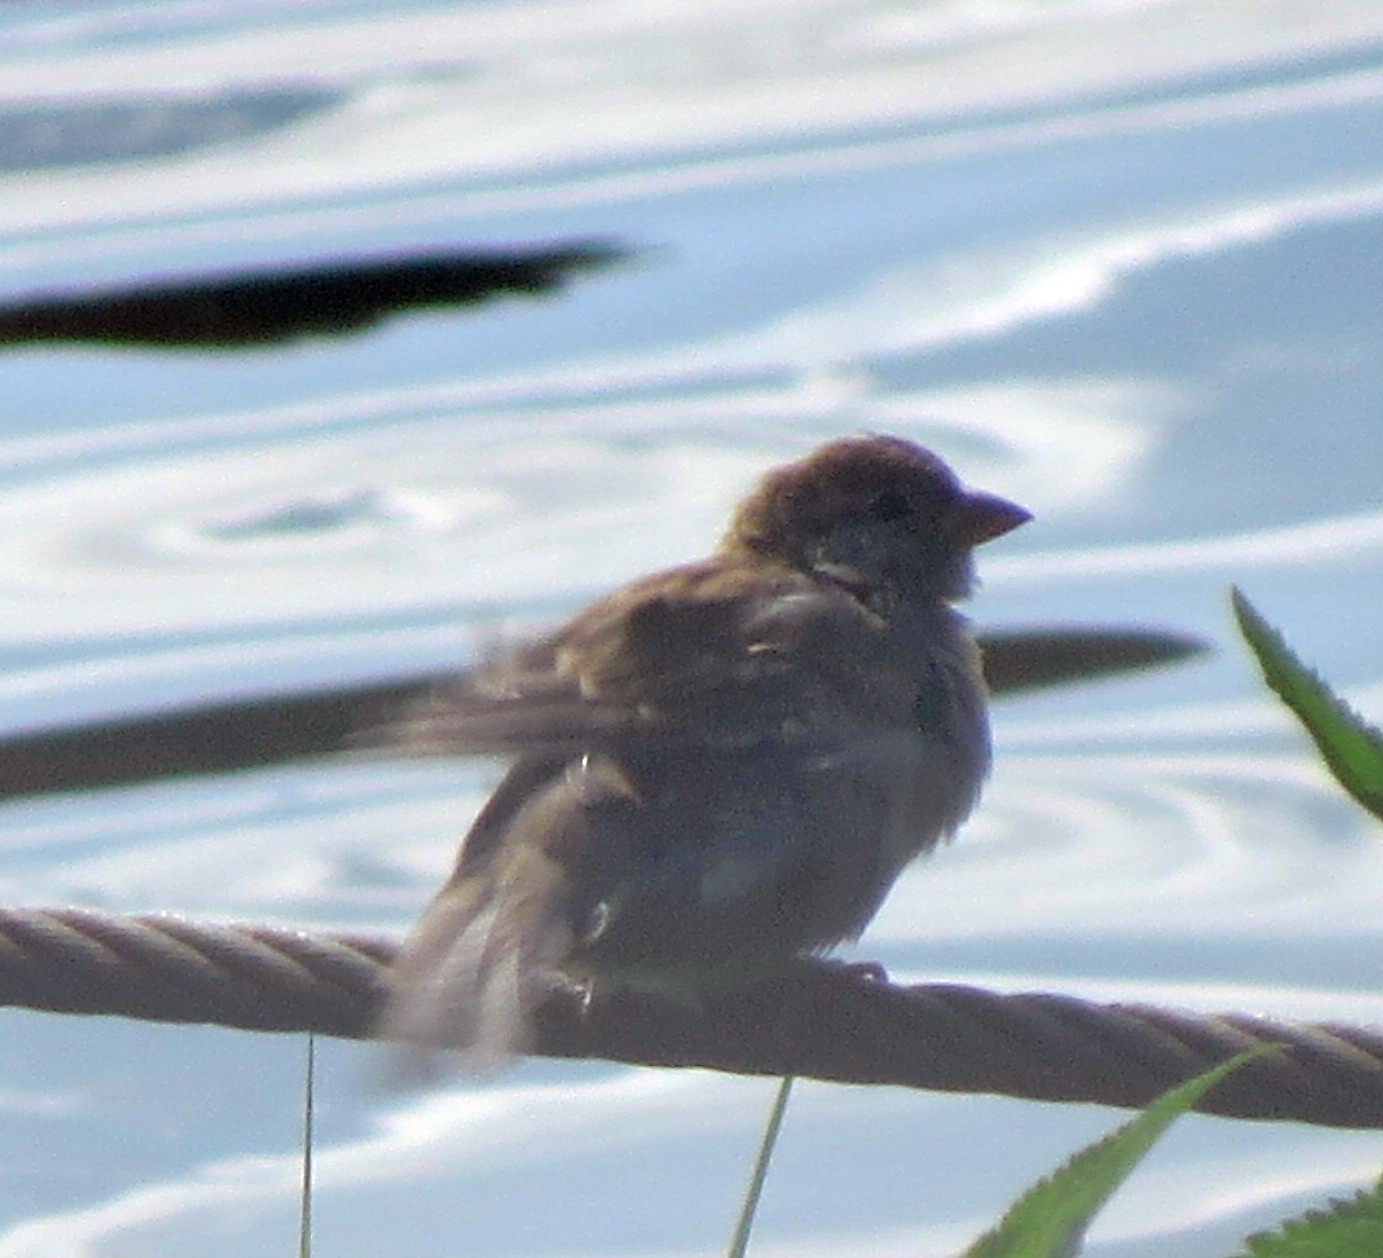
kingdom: Animalia
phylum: Chordata
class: Aves
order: Passeriformes
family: Passeridae
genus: Passer
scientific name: Passer domesticus
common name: House sparrow
